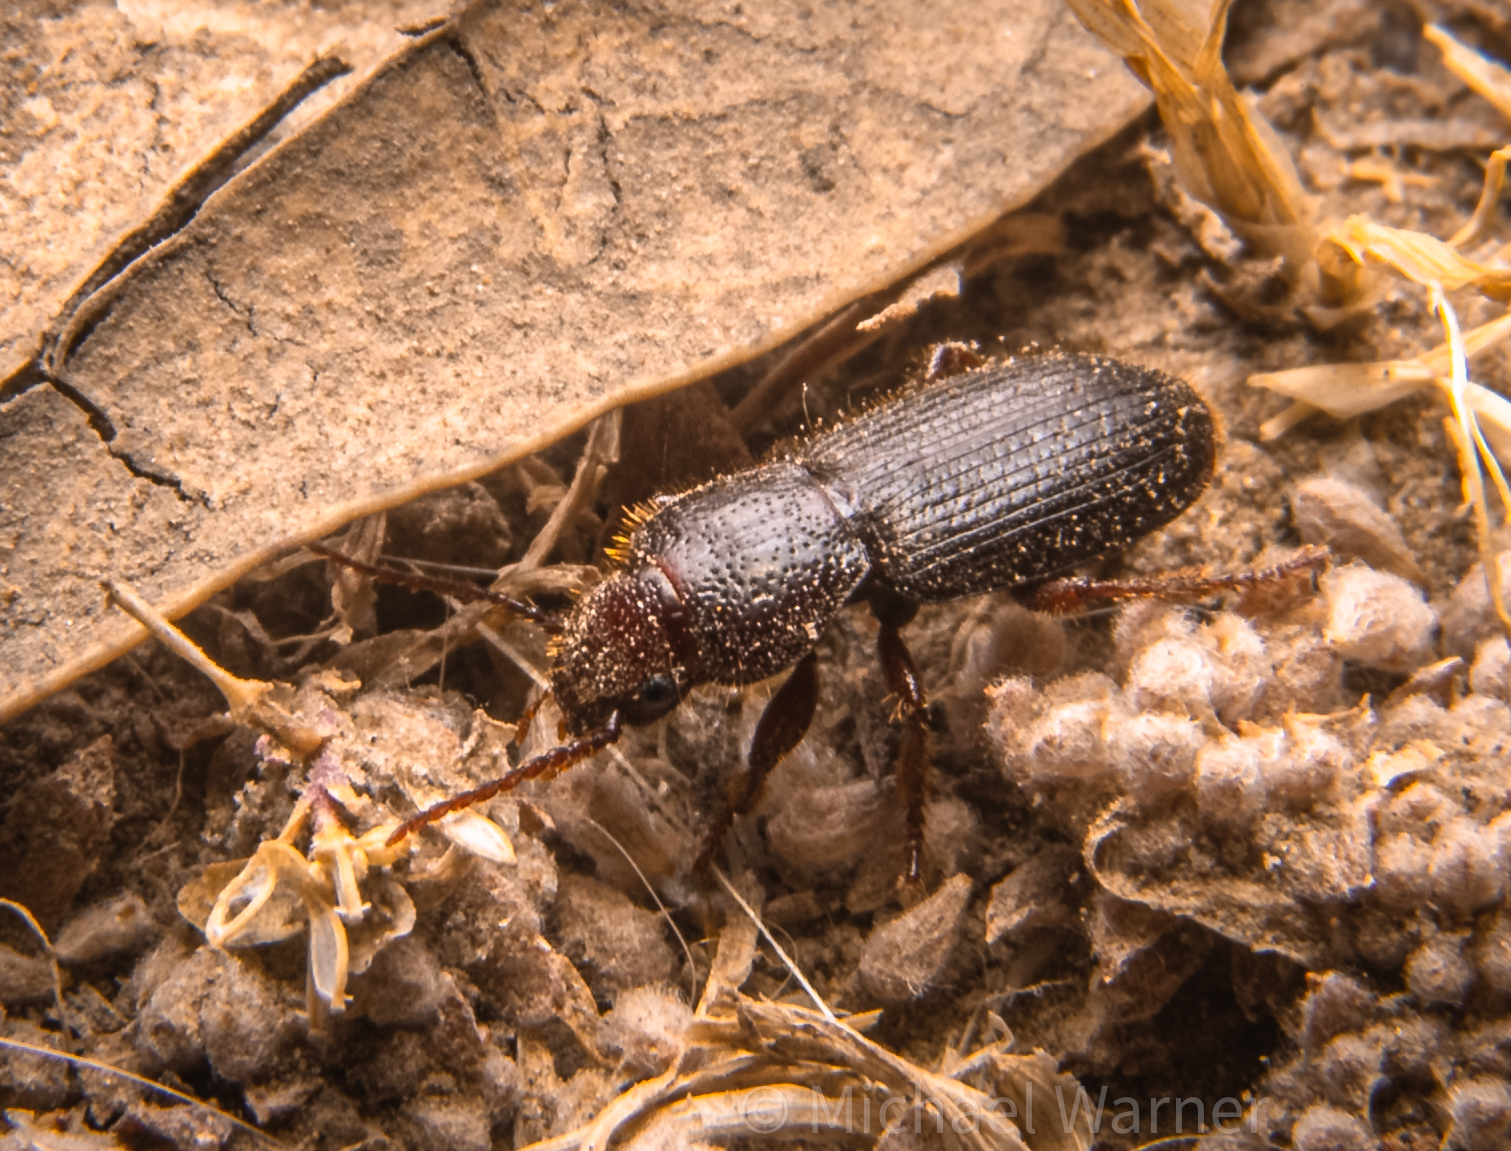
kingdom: Animalia
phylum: Arthropoda
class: Insecta
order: Coleoptera
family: Carabidae
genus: Dicheirus
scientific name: Dicheirus dilatatus
